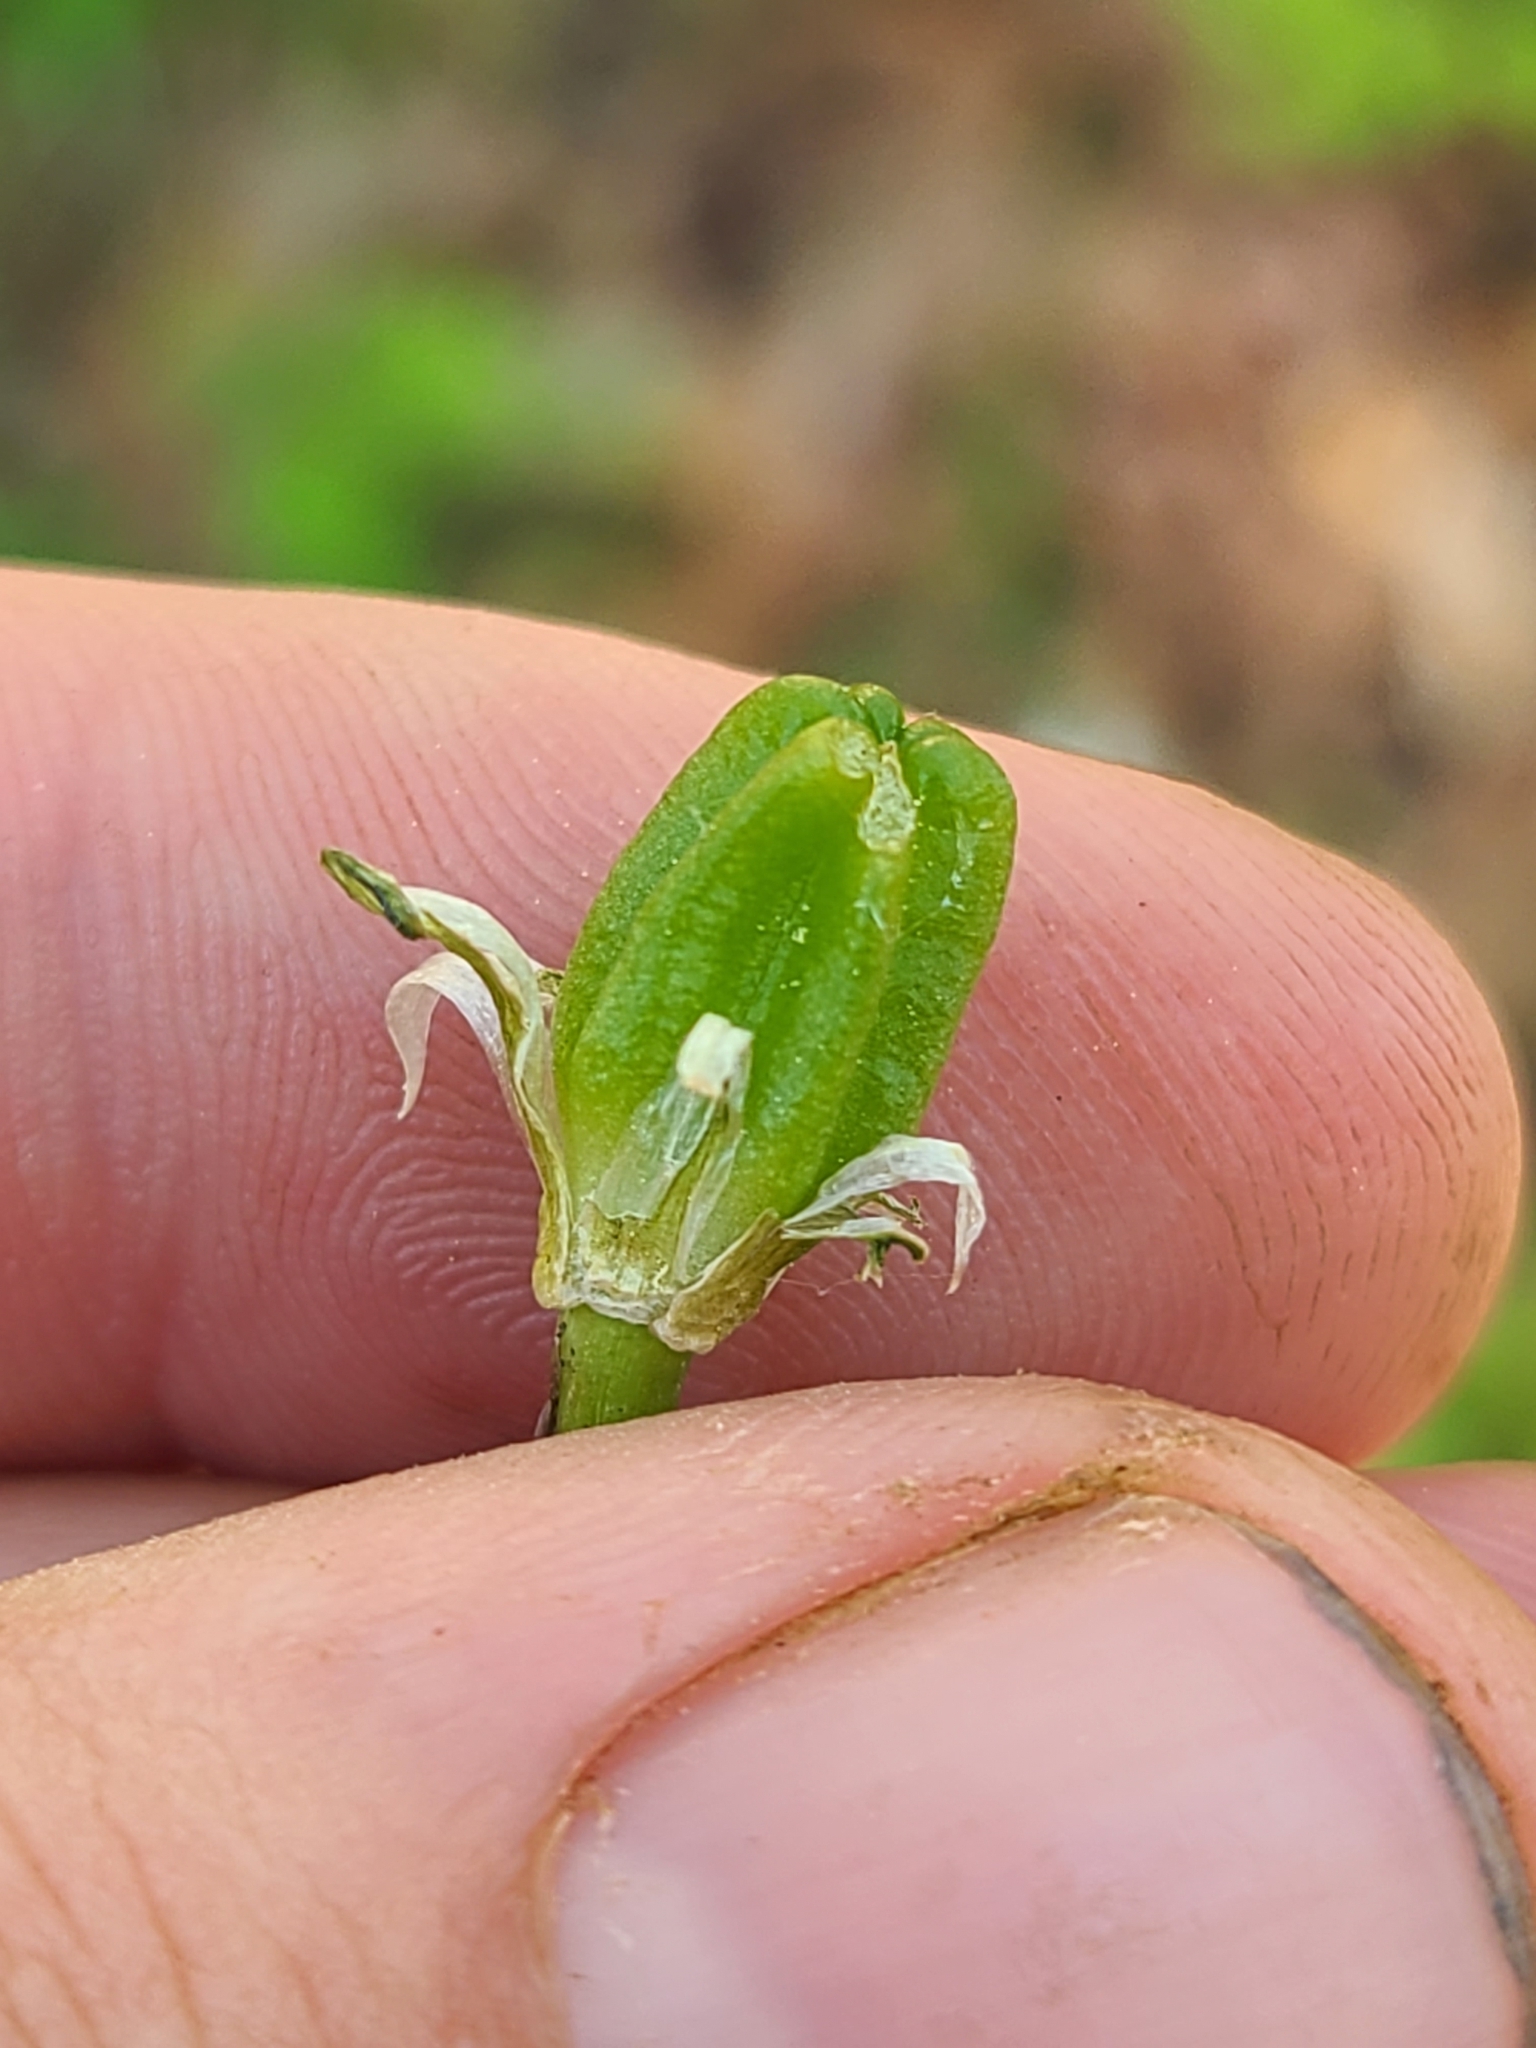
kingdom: Plantae
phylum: Tracheophyta
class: Liliopsida
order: Asparagales
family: Asparagaceae
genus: Ornithogalum
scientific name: Ornithogalum umbellatum
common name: Garden star-of-bethlehem
